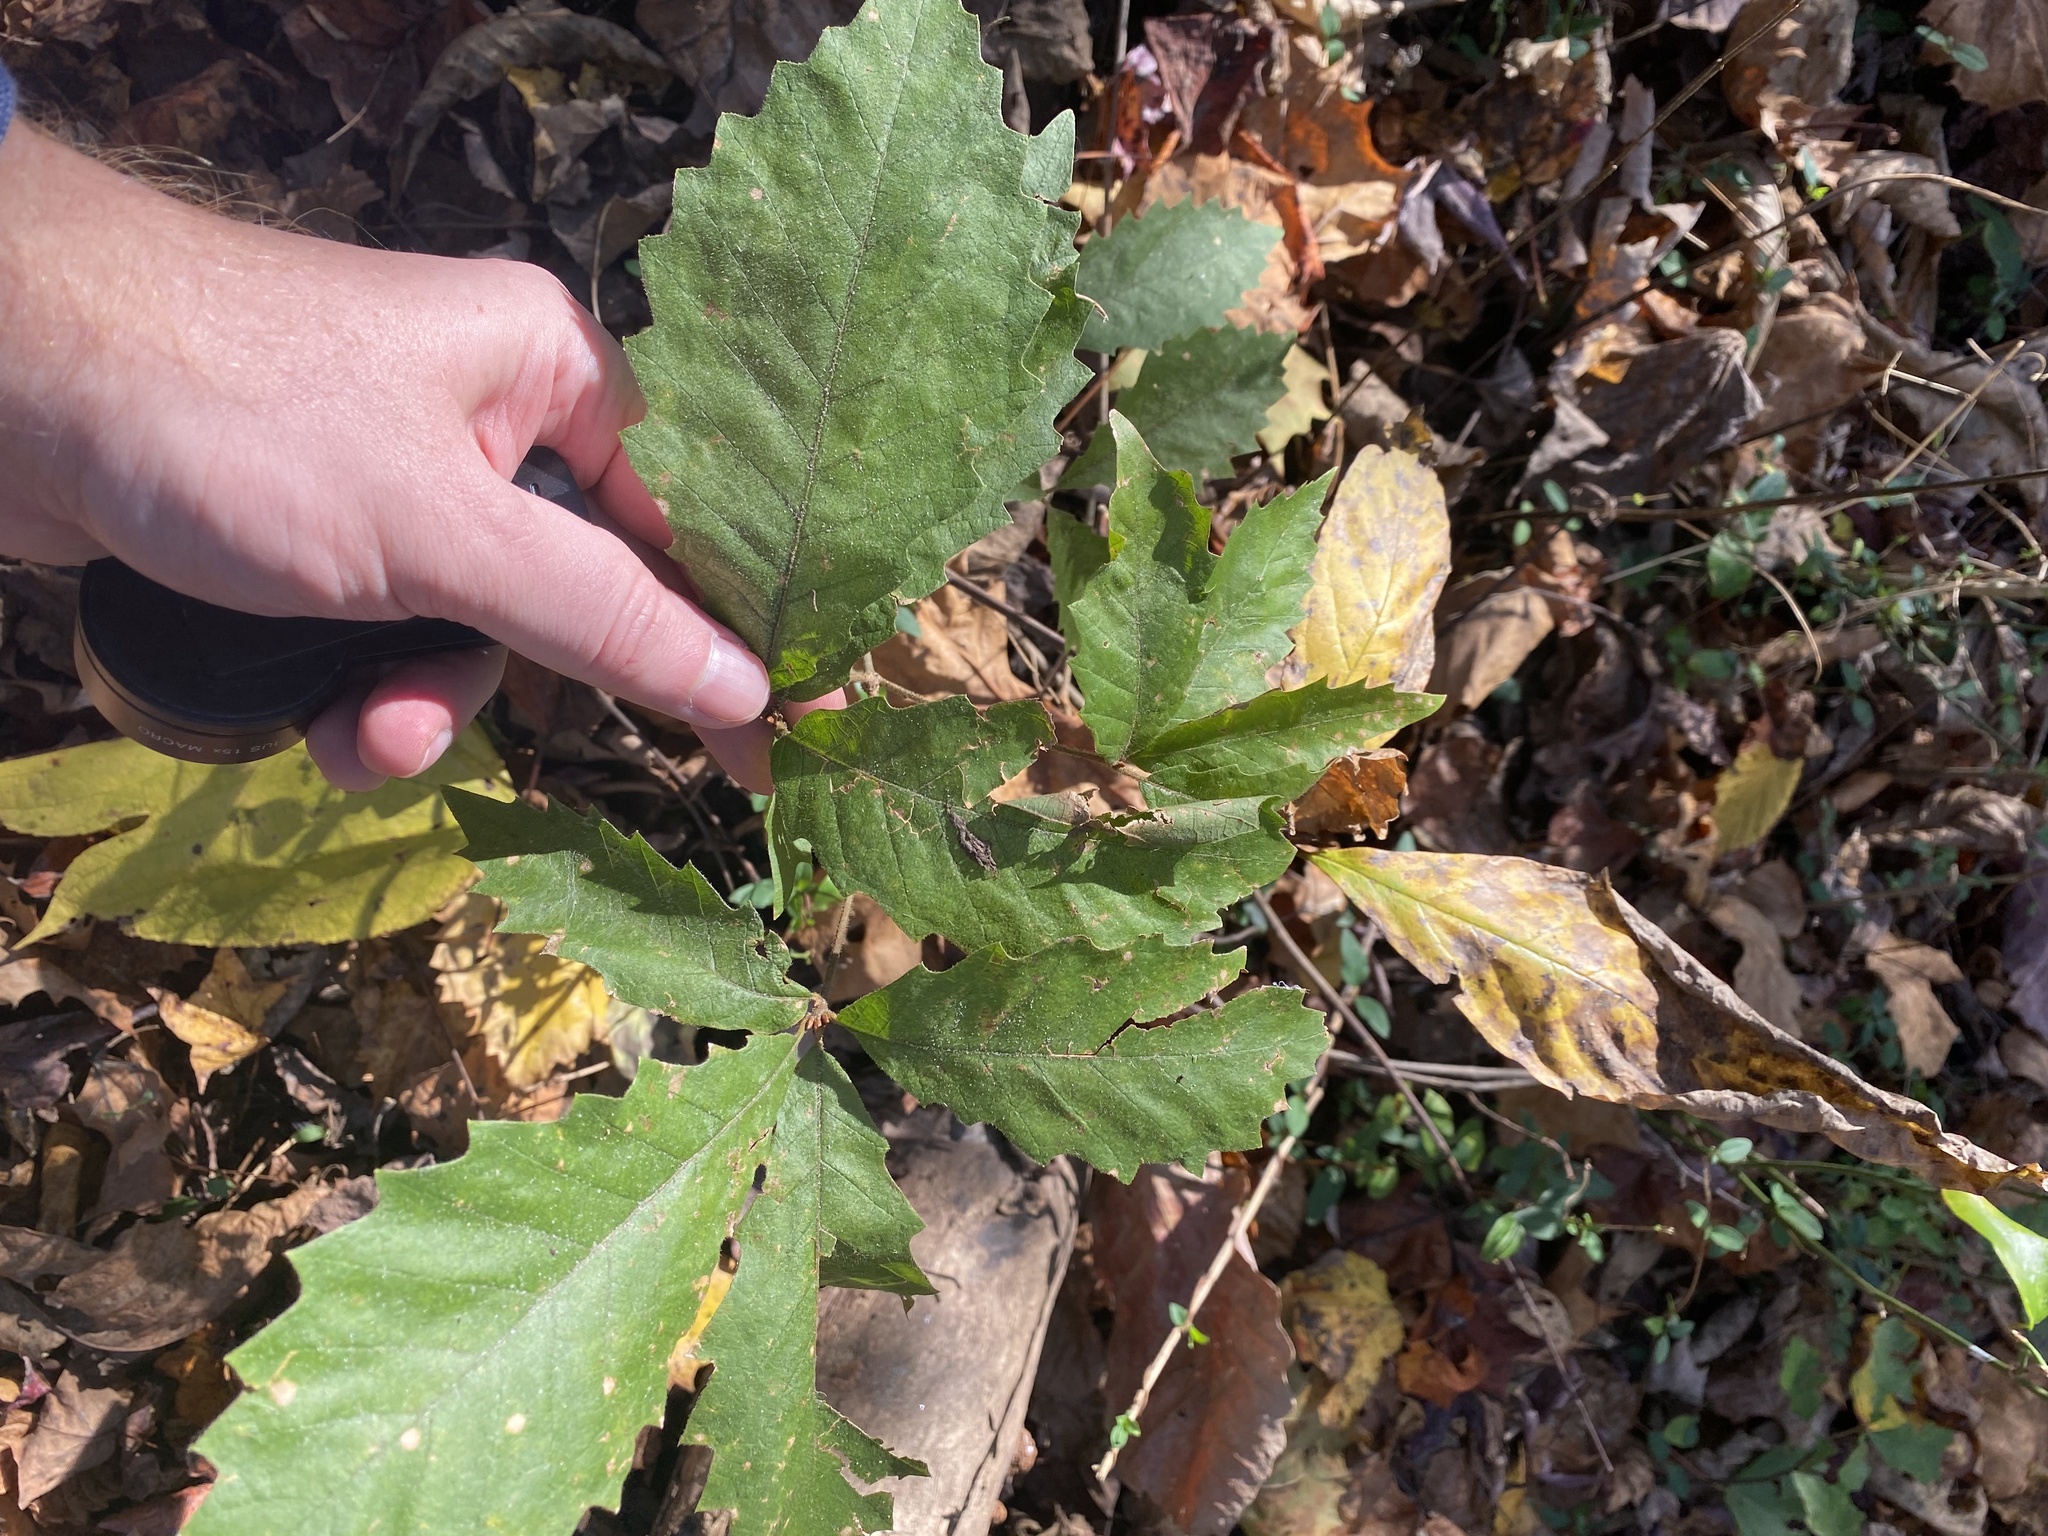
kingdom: Plantae
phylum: Tracheophyta
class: Magnoliopsida
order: Fagales
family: Fagaceae
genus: Quercus
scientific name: Quercus michauxii
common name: Swamp chestnut oak
